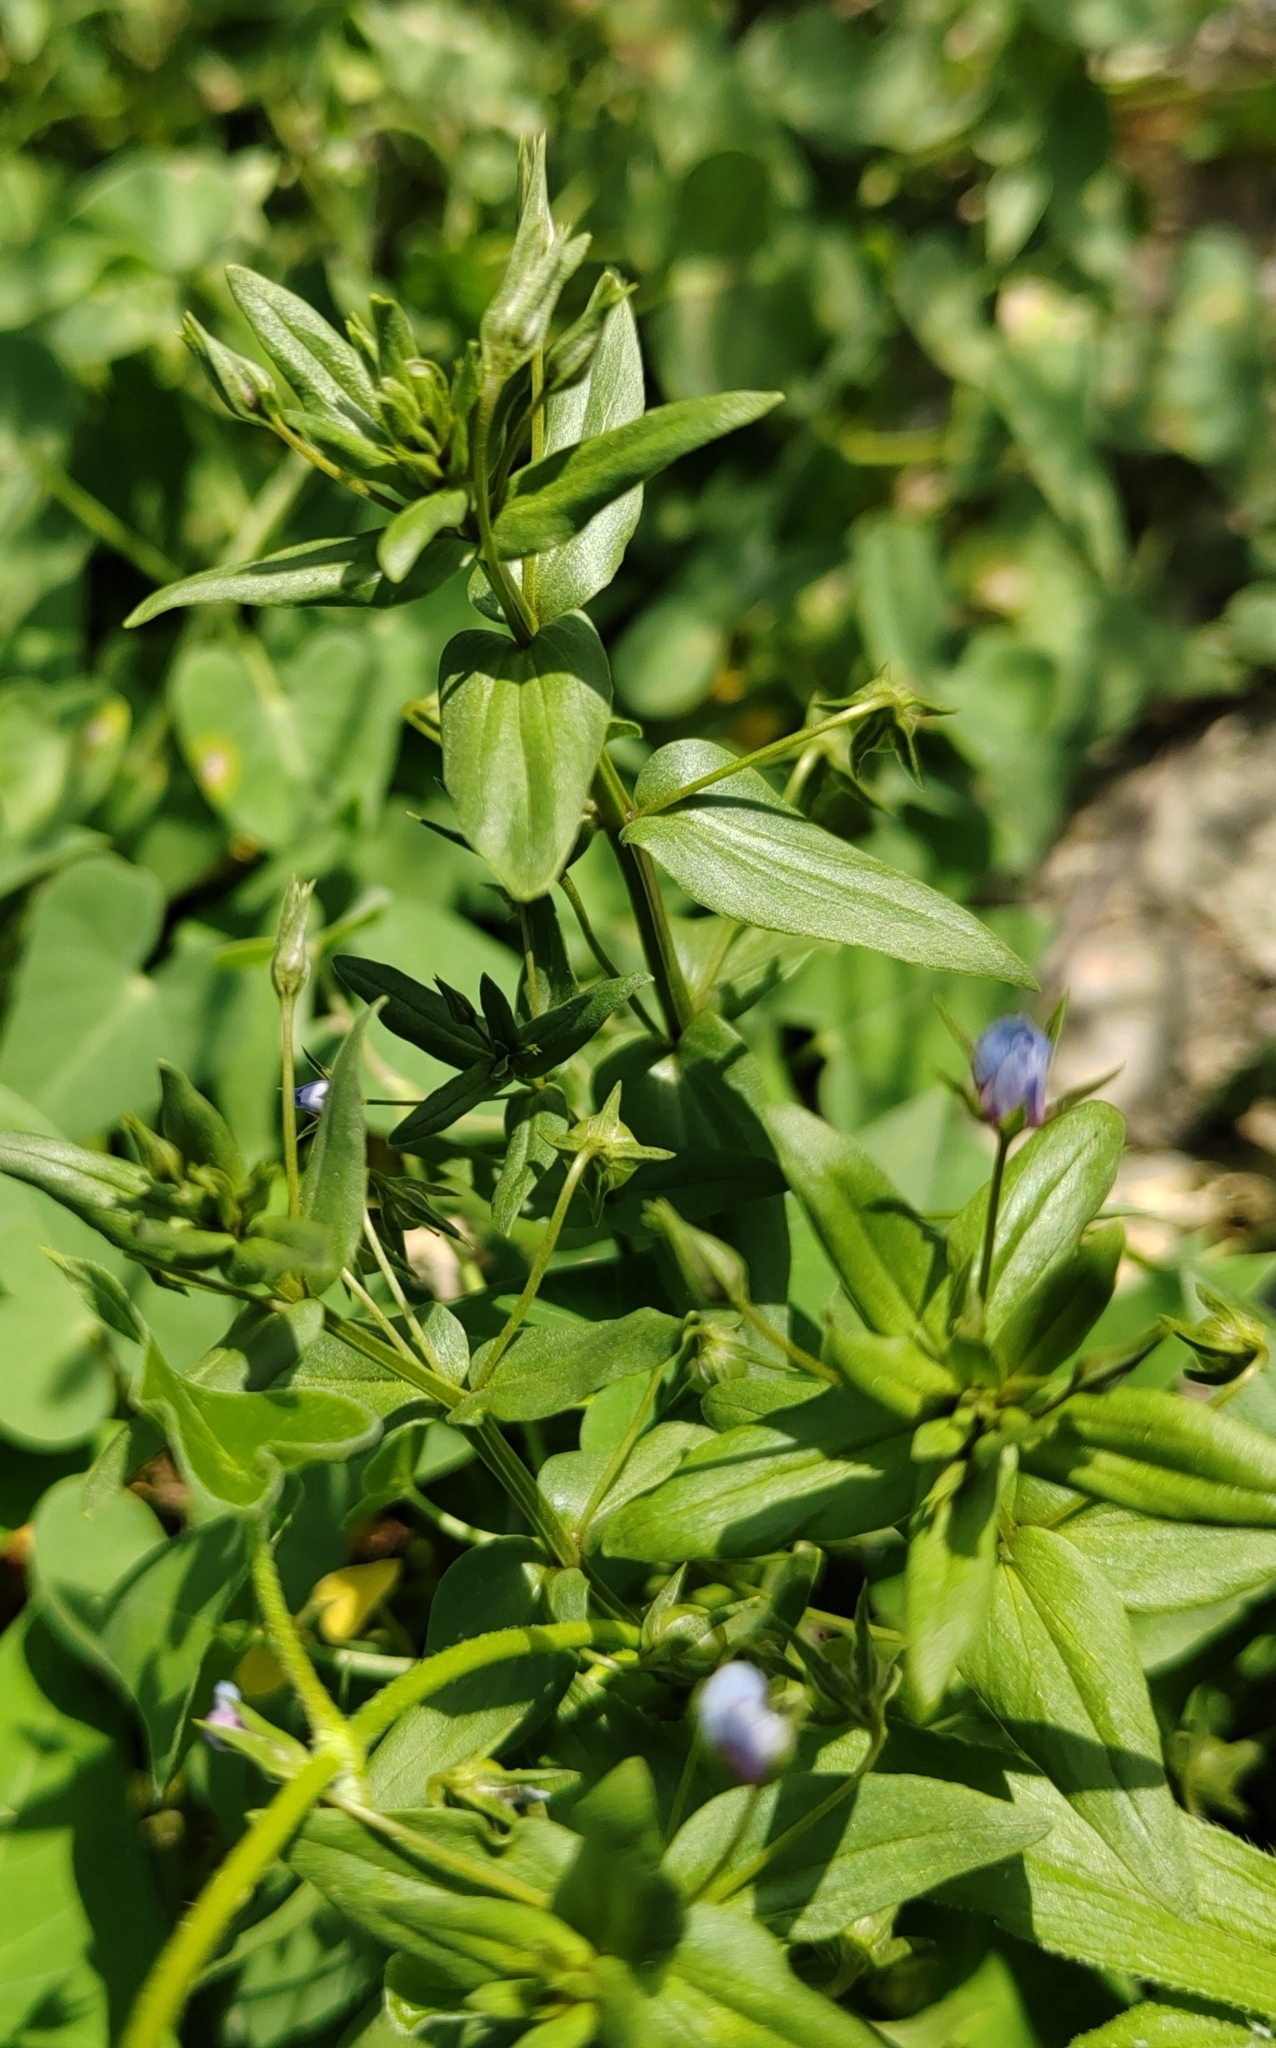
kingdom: Plantae
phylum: Tracheophyta
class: Magnoliopsida
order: Ericales
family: Primulaceae
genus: Lysimachia
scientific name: Lysimachia foemina
